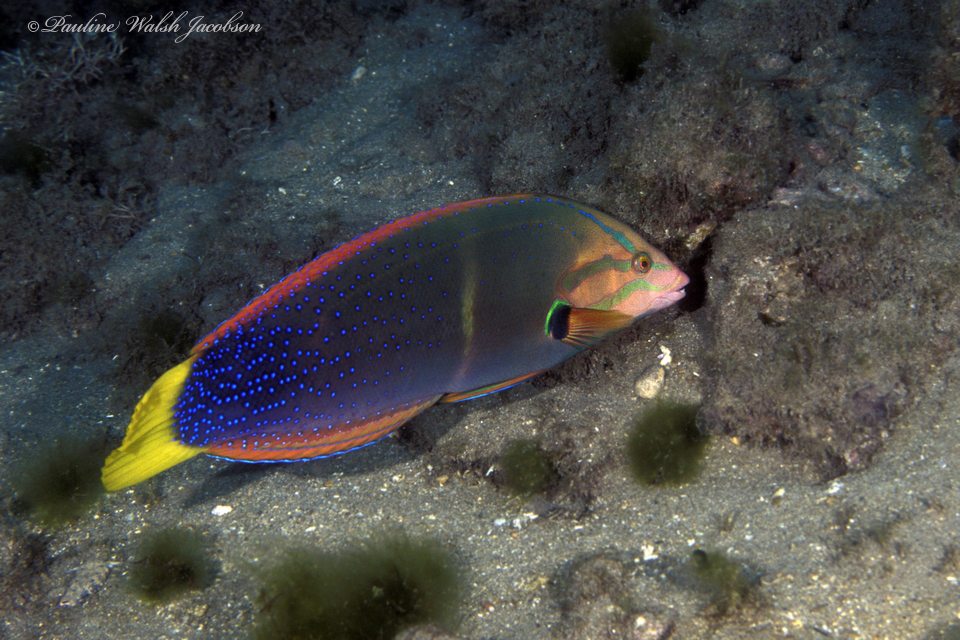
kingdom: Animalia
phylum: Chordata
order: Perciformes
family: Labridae
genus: Coris
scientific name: Coris gaimard
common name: Yellowtail coris
